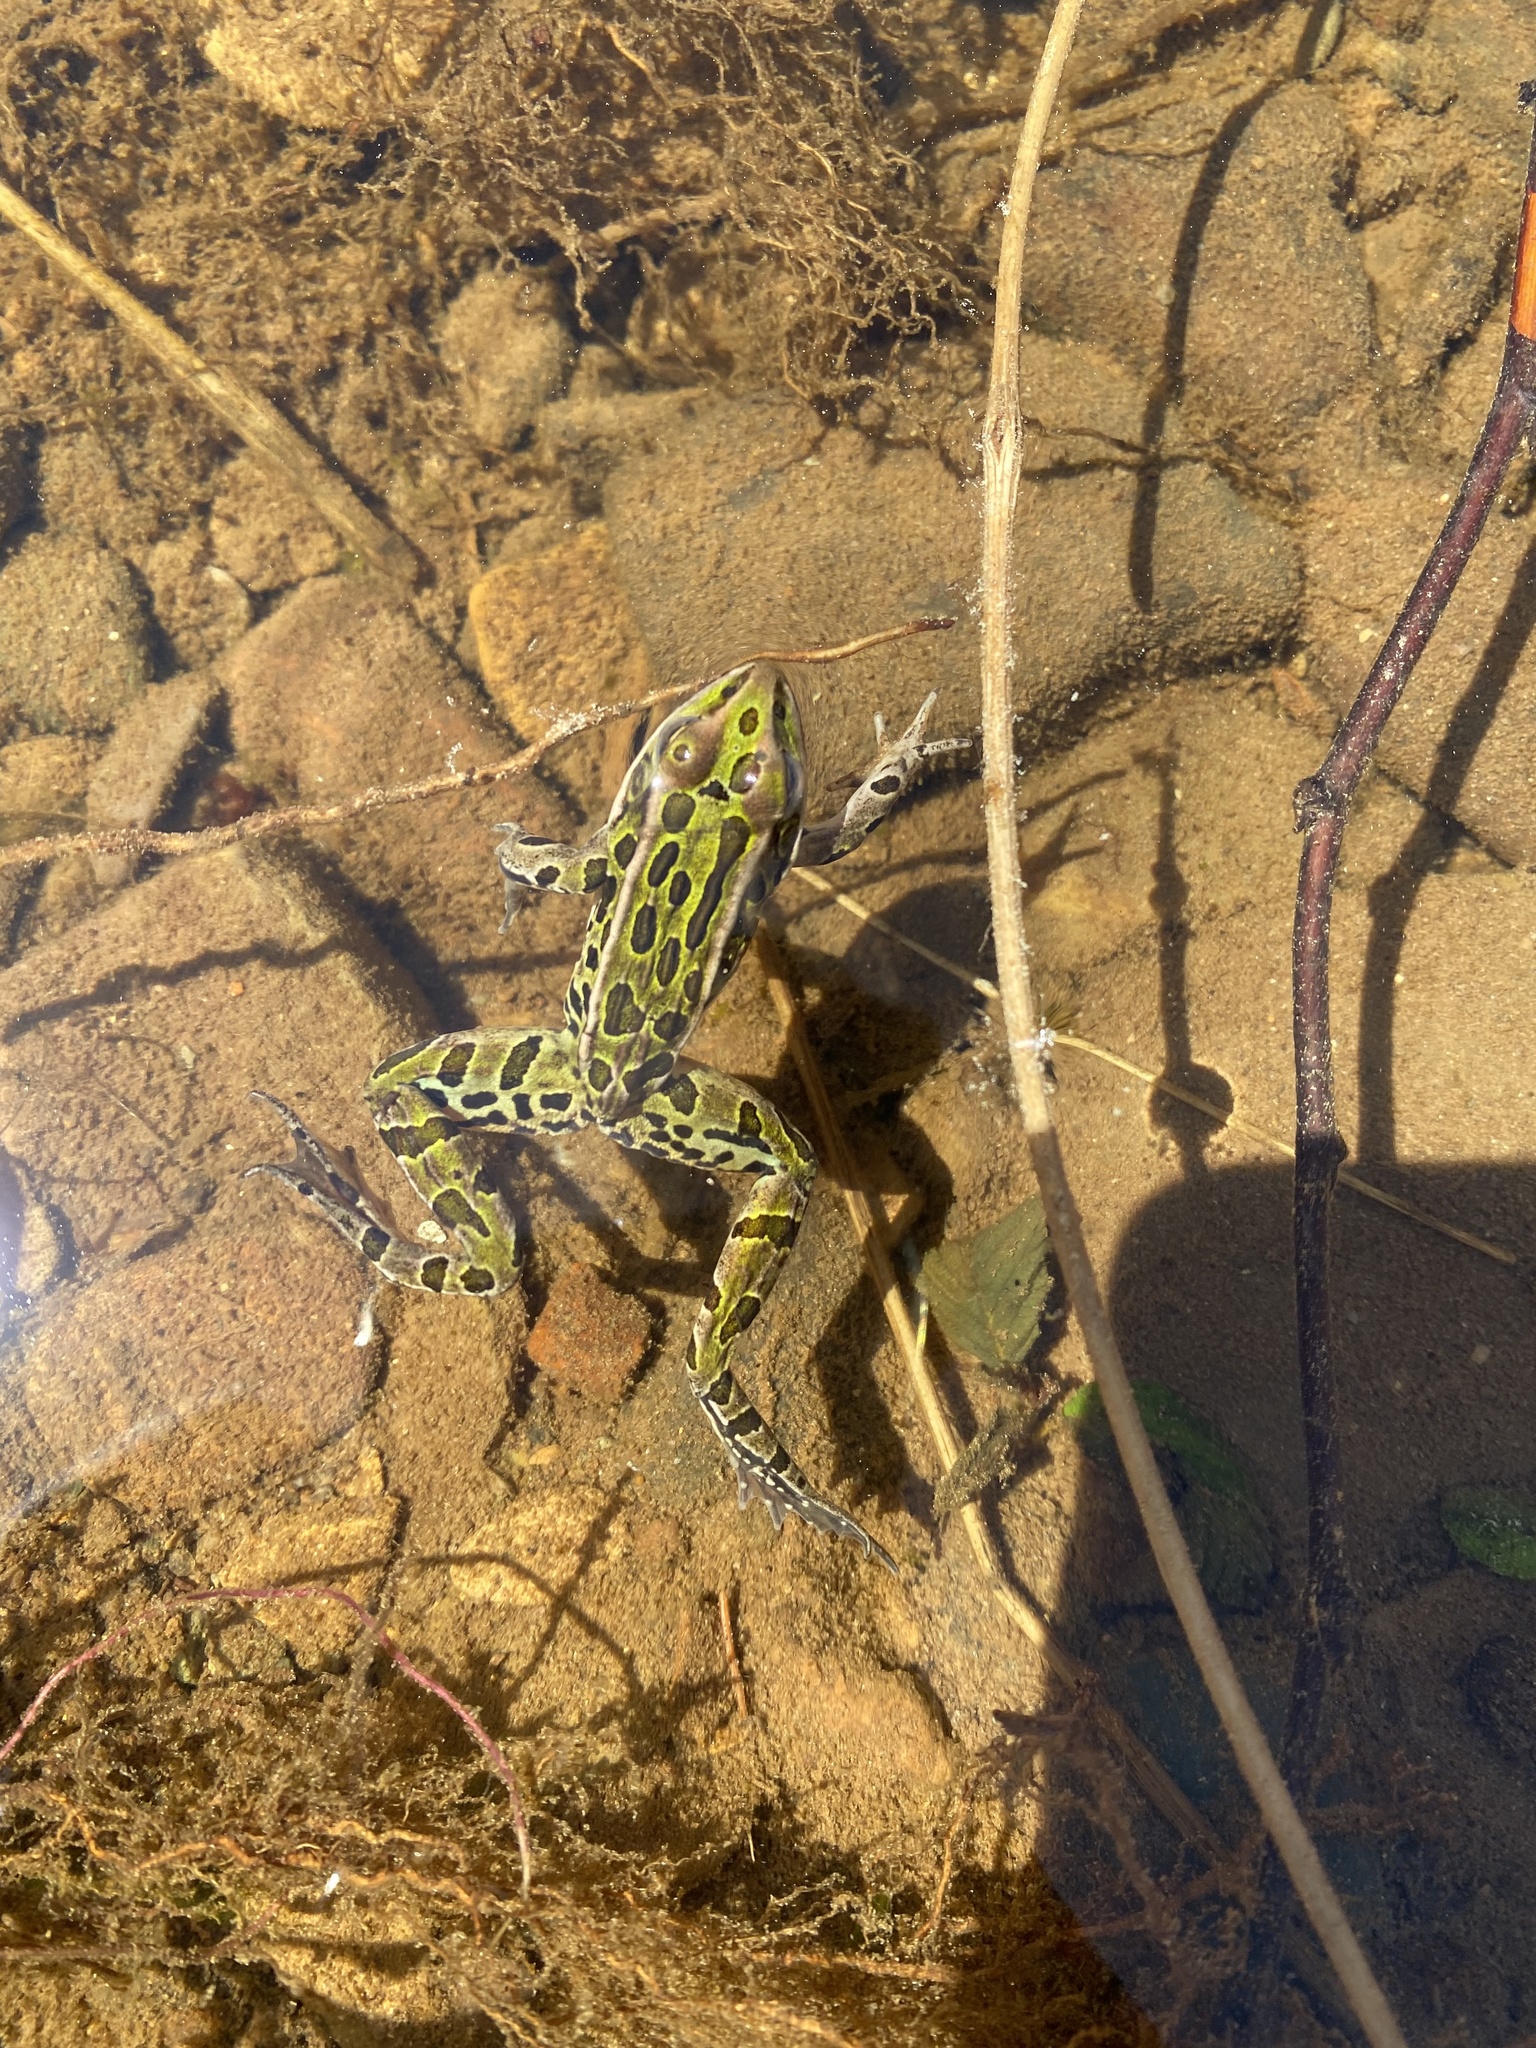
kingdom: Animalia
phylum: Chordata
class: Amphibia
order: Anura
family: Ranidae
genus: Lithobates
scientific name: Lithobates pipiens
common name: Northern leopard frog
